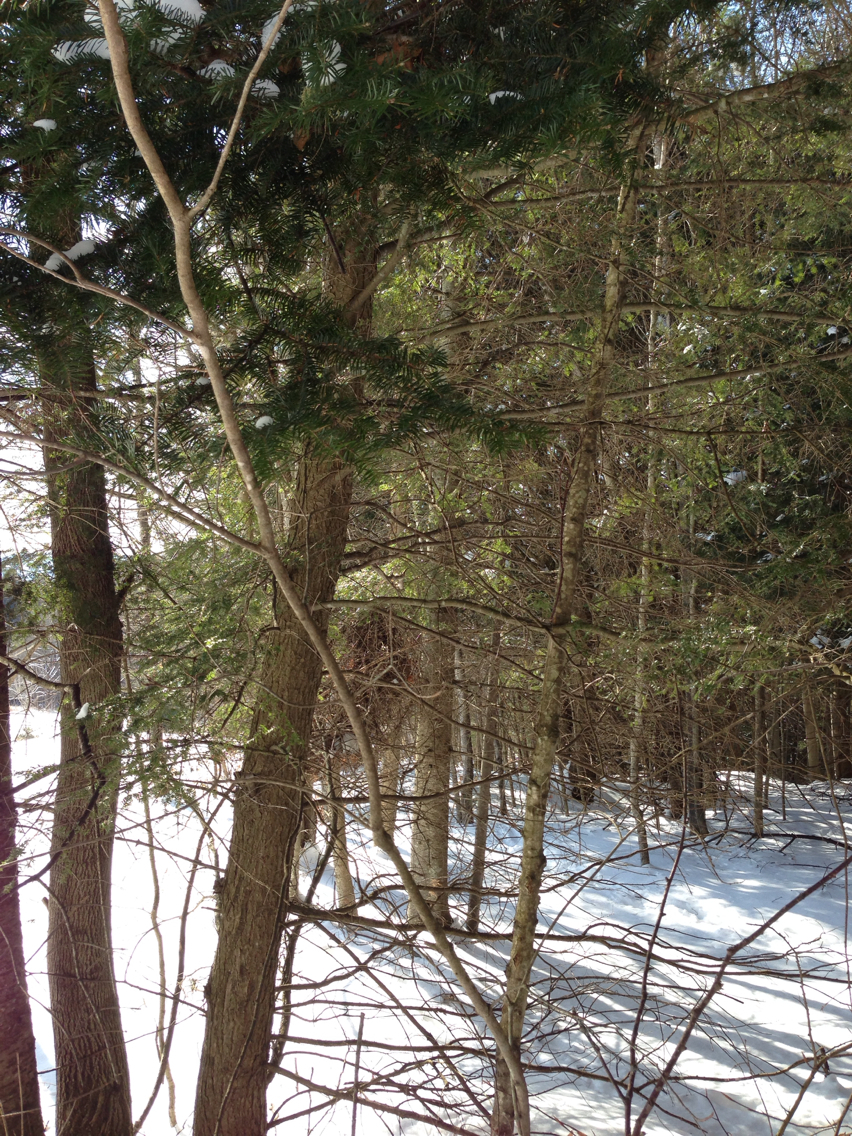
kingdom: Plantae
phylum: Tracheophyta
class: Pinopsida
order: Pinales
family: Pinaceae
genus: Tsuga
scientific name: Tsuga canadensis
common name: Eastern hemlock
